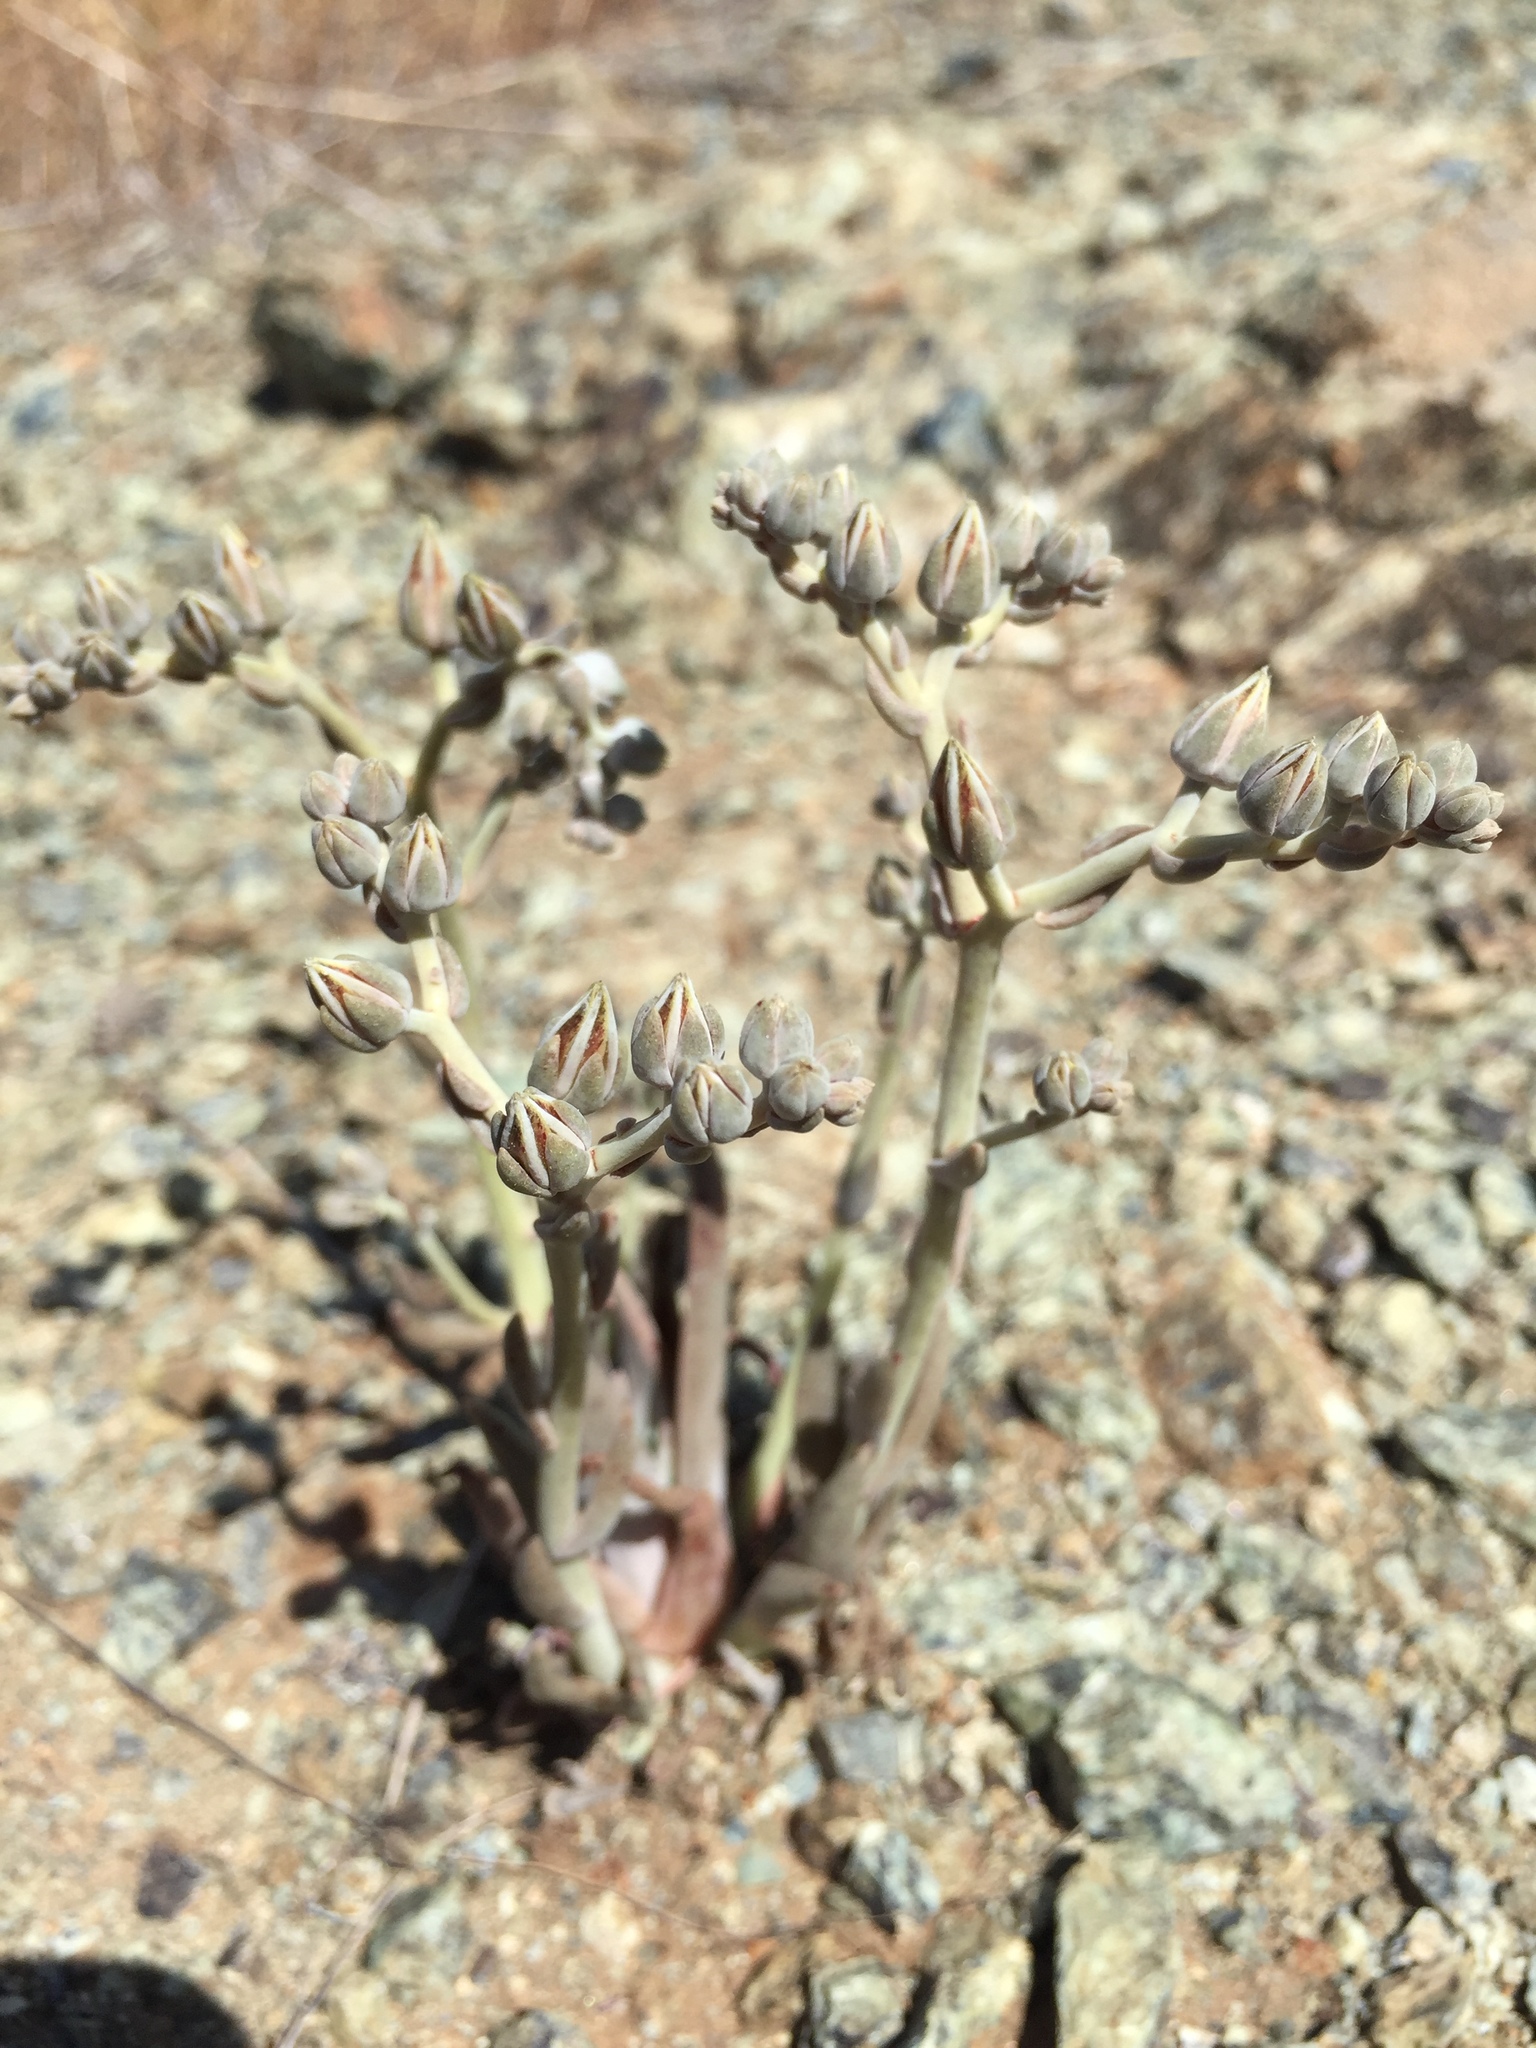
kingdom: Plantae
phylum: Tracheophyta
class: Magnoliopsida
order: Saxifragales
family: Crassulaceae
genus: Dudleya
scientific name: Dudleya abramsii
